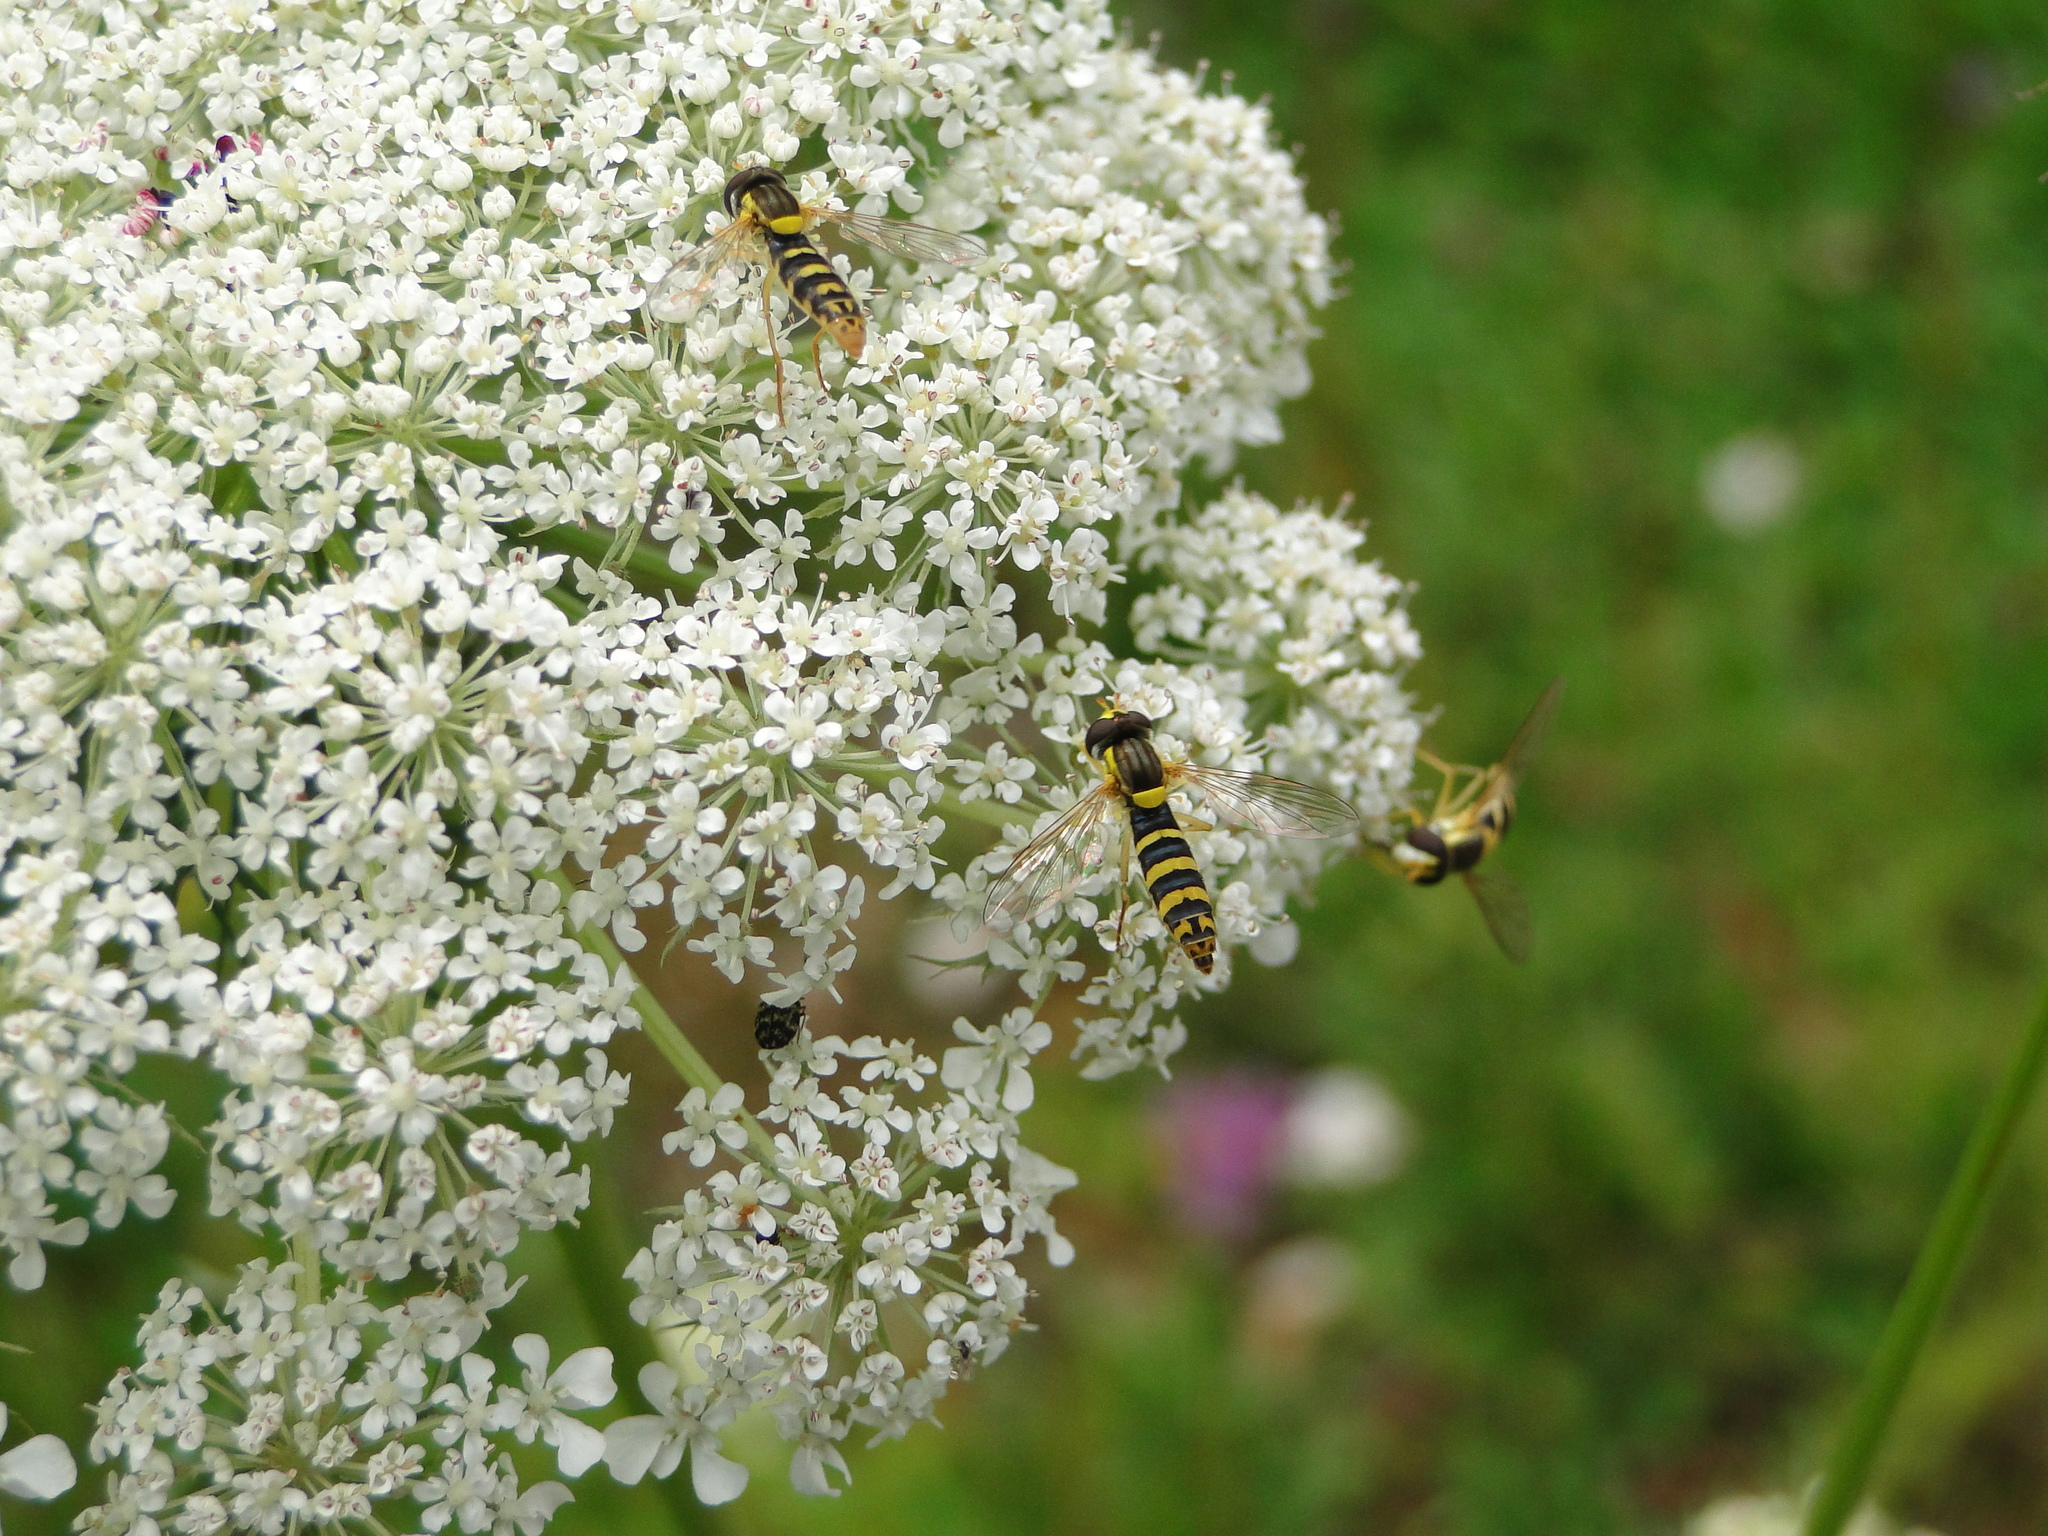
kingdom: Animalia
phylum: Arthropoda
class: Insecta
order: Diptera
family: Syrphidae
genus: Sphaerophoria
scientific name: Sphaerophoria
